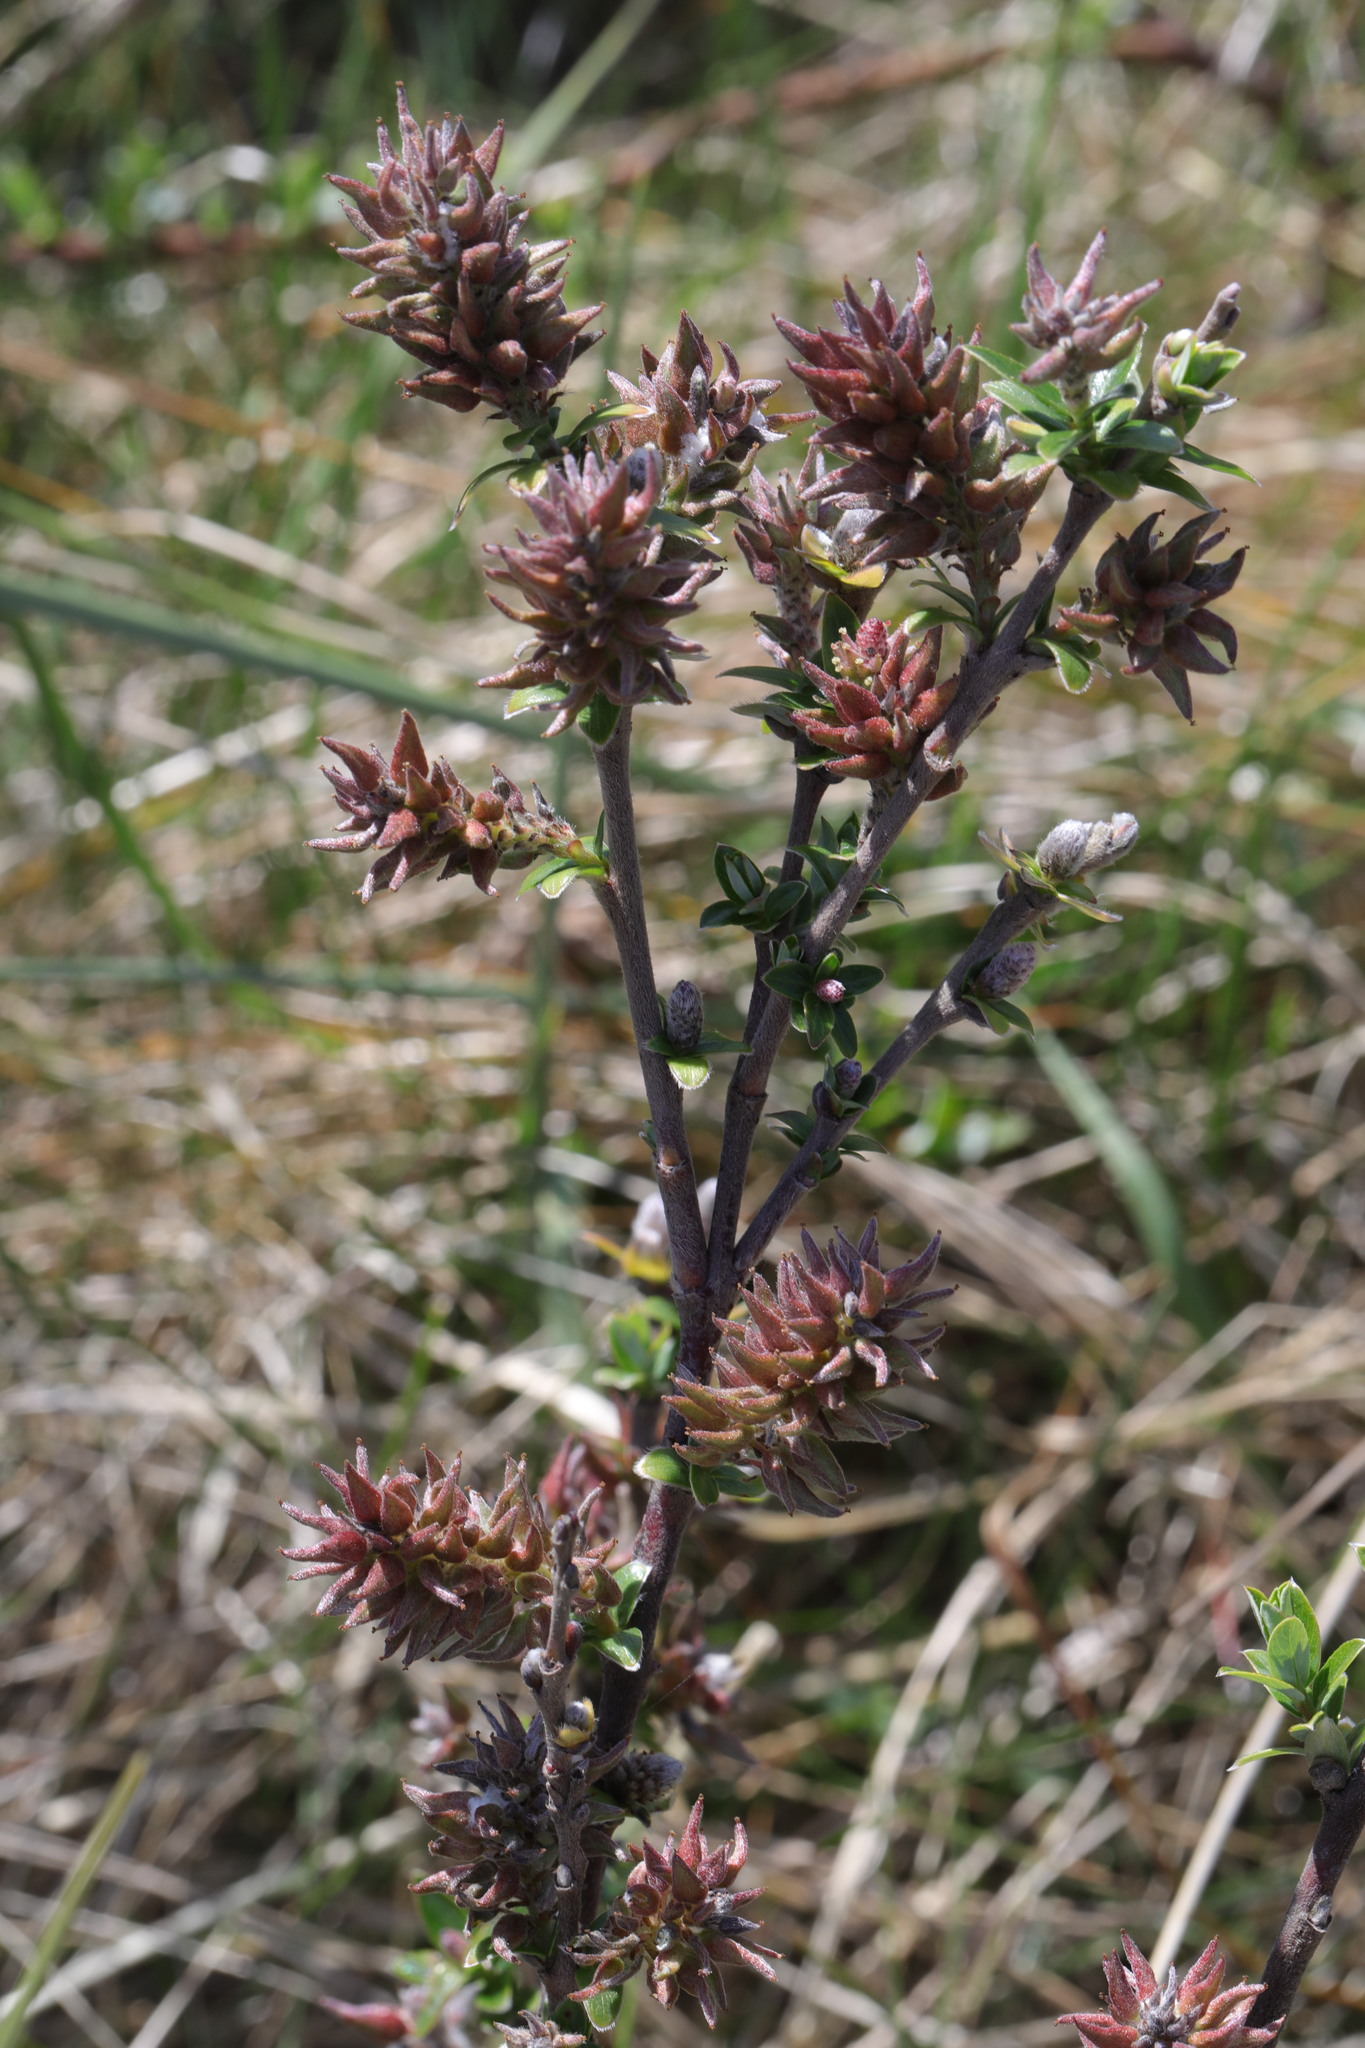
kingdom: Plantae
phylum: Tracheophyta
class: Magnoliopsida
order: Malpighiales
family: Salicaceae
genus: Salix
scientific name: Salix repens
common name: Creeping willow
